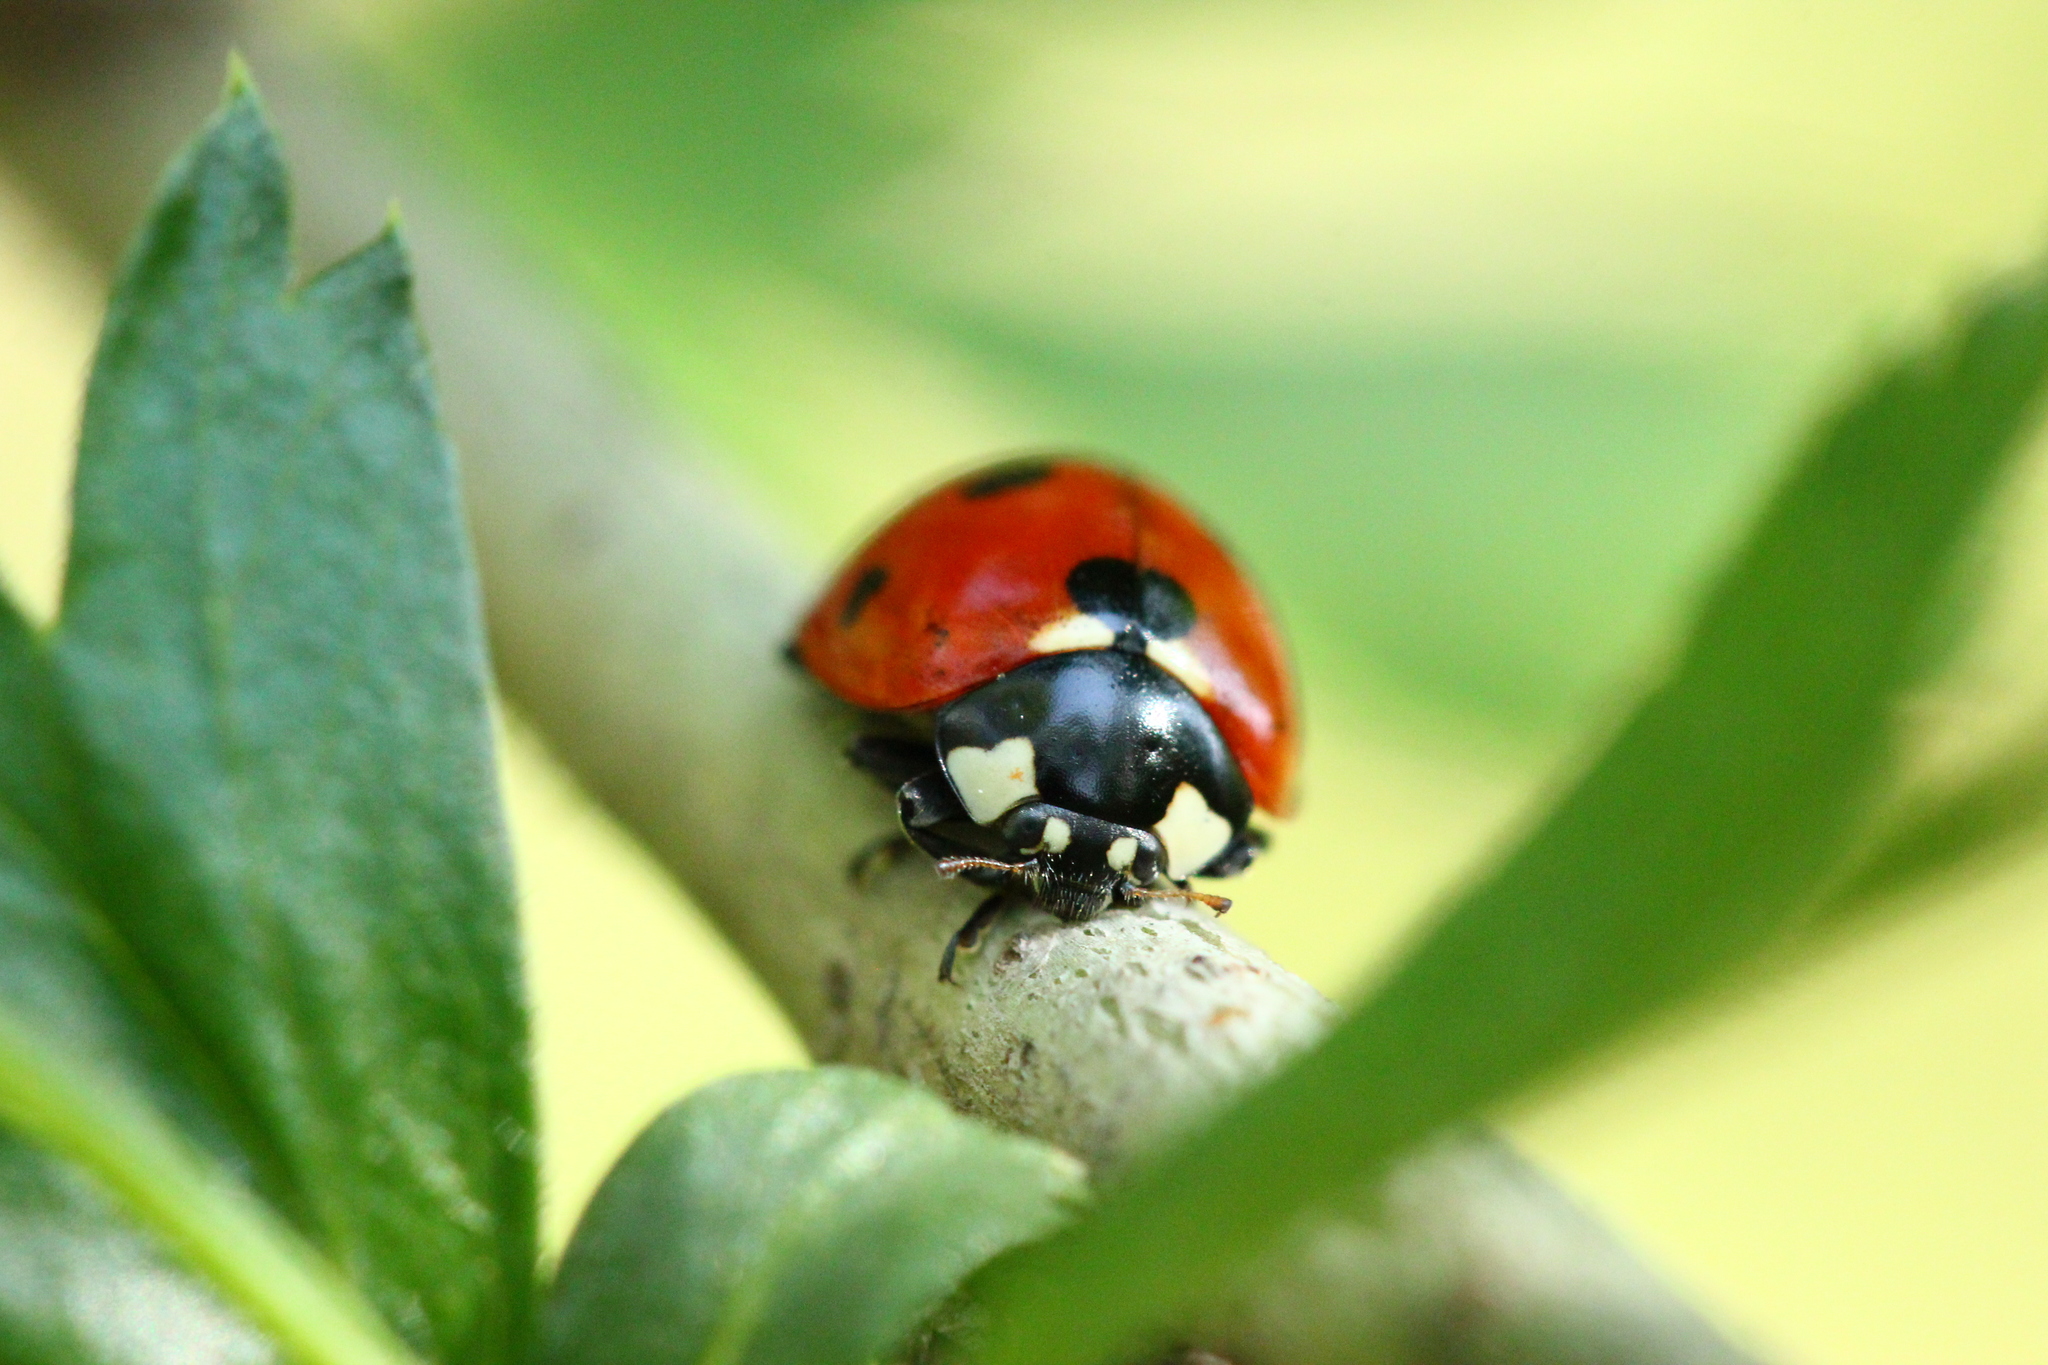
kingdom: Animalia
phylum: Arthropoda
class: Insecta
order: Coleoptera
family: Coccinellidae
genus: Coccinella
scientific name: Coccinella septempunctata
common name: Sevenspotted lady beetle
